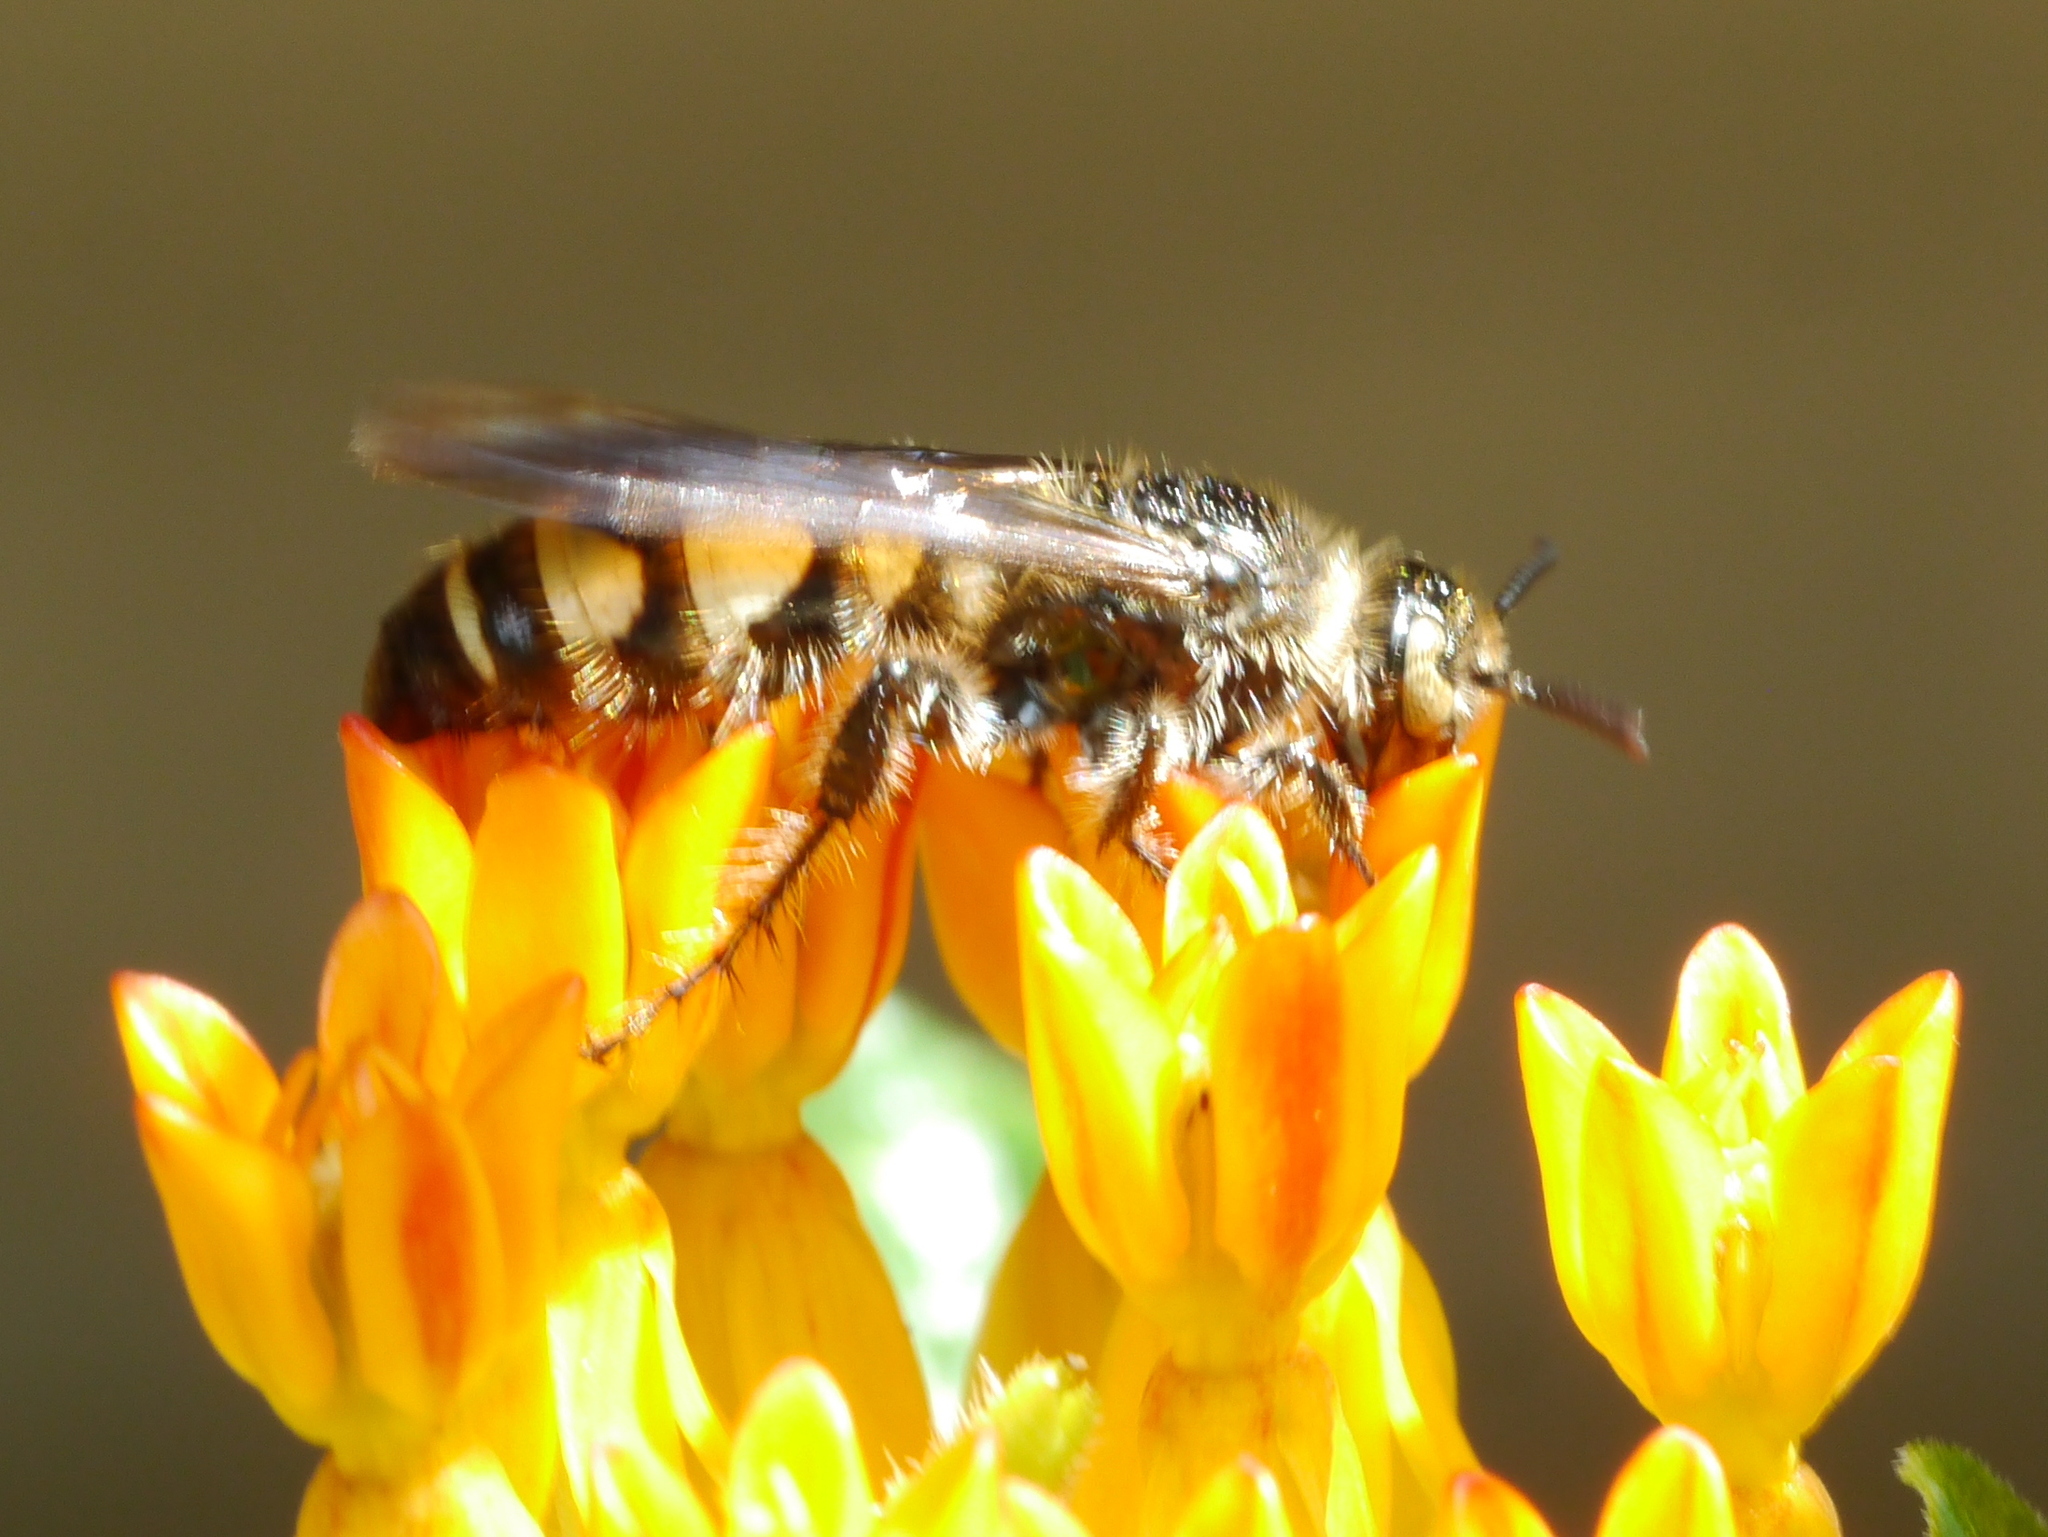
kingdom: Animalia
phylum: Arthropoda
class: Insecta
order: Hymenoptera
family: Scoliidae
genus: Dielis
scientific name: Dielis
